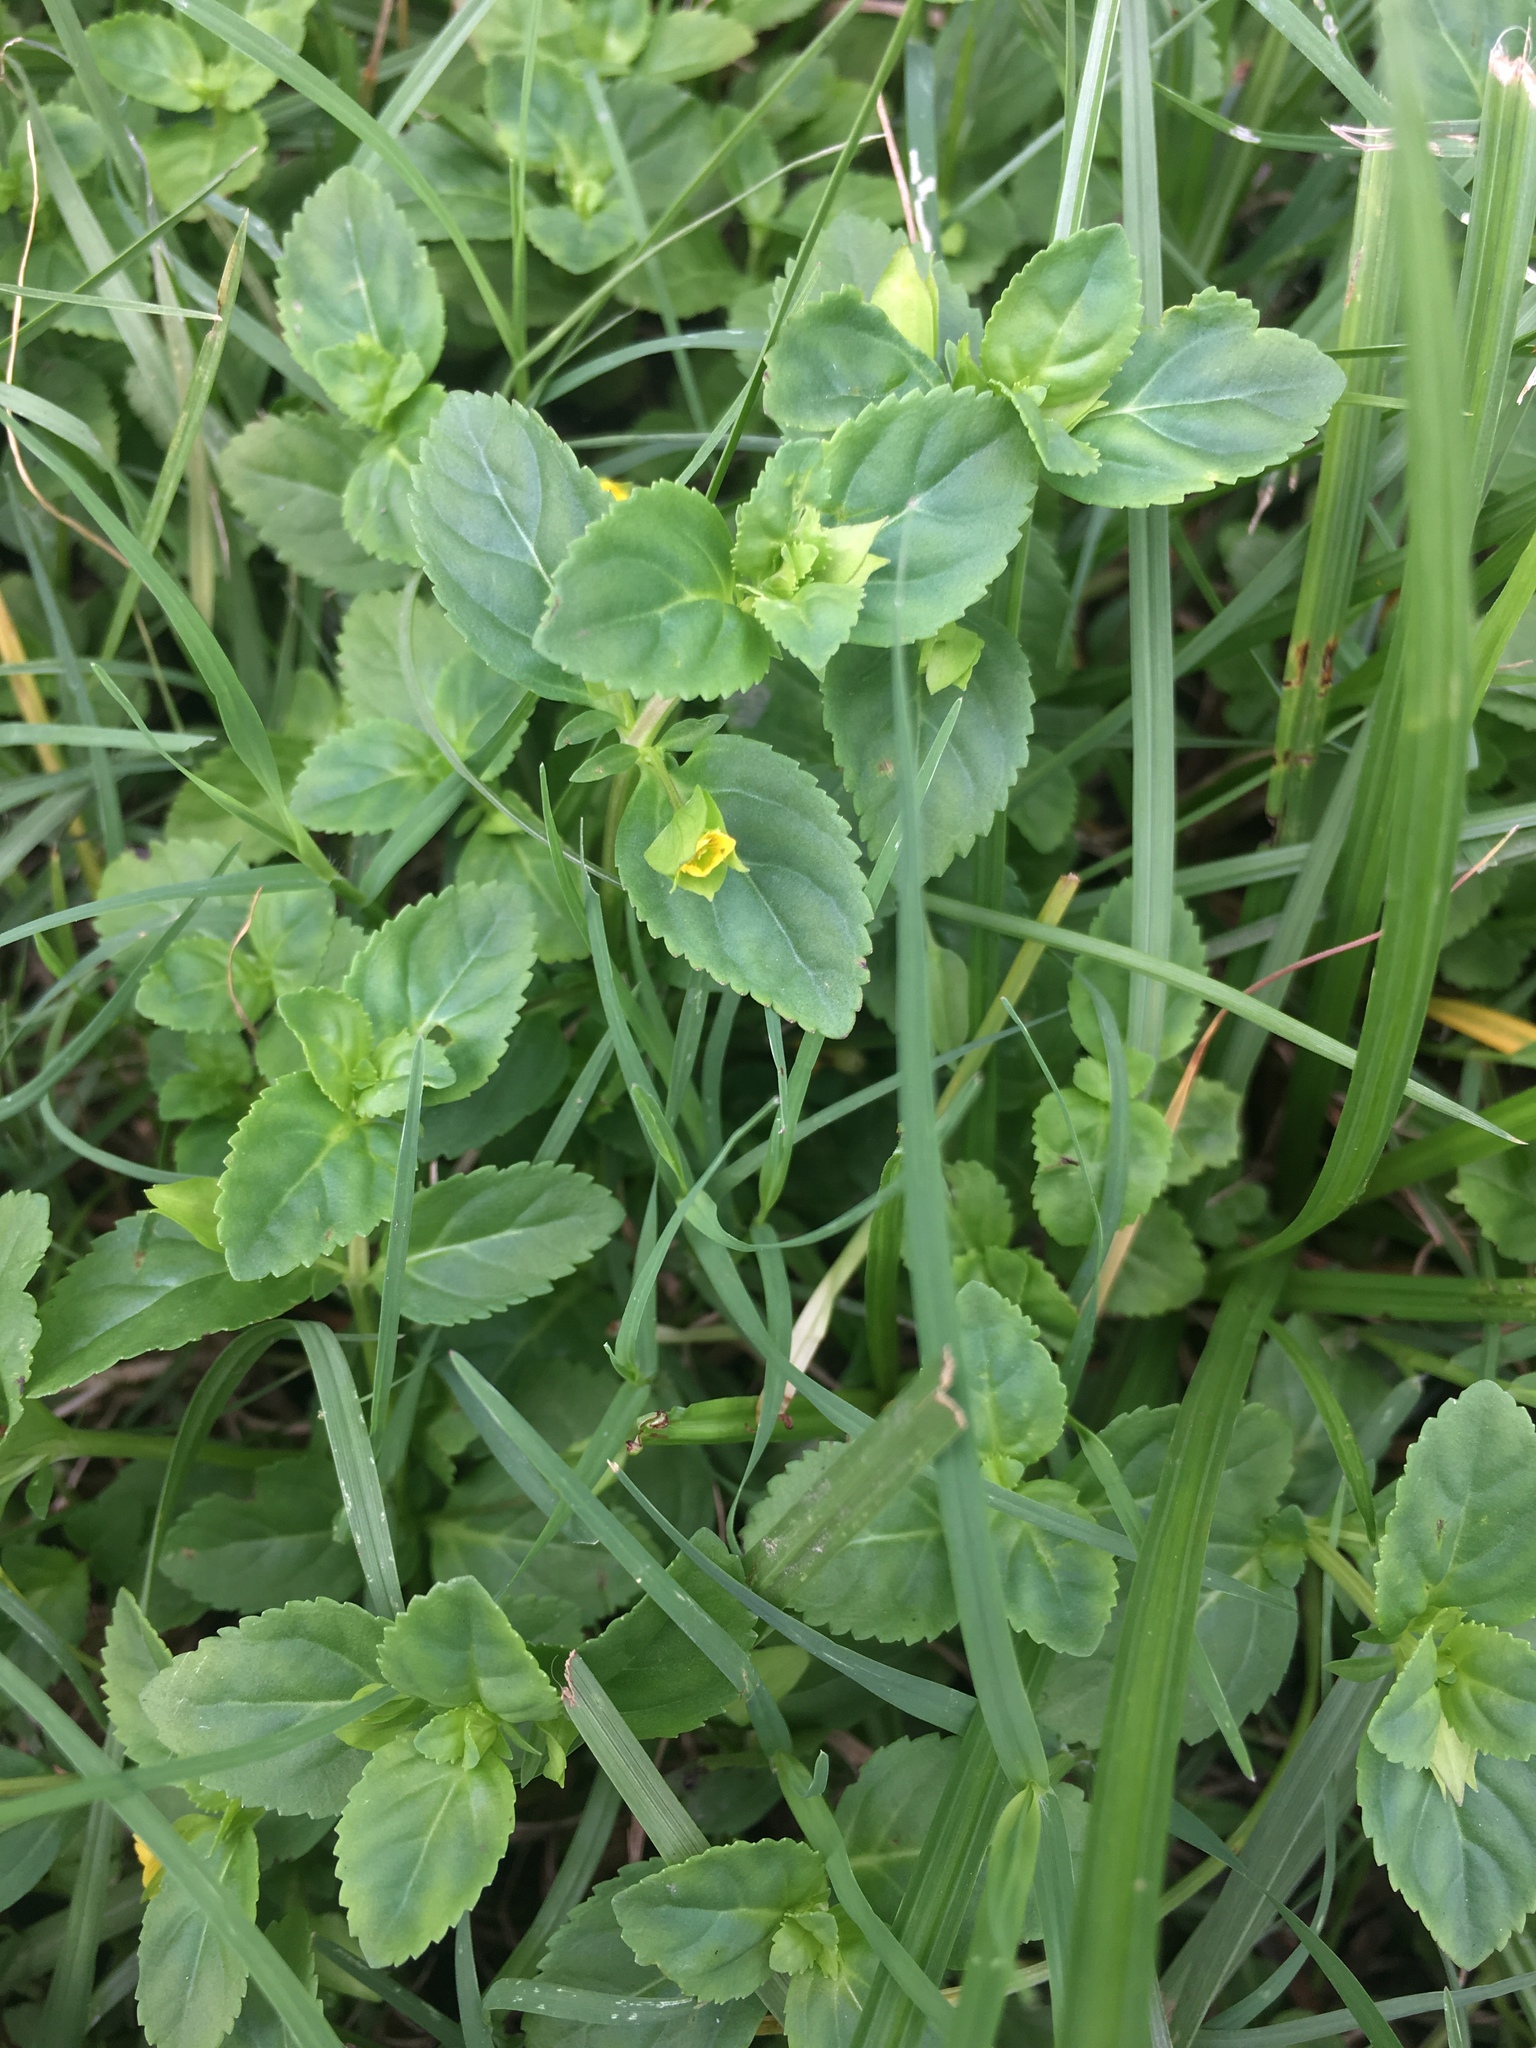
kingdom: Plantae
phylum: Tracheophyta
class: Magnoliopsida
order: Lamiales
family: Plantaginaceae
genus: Mecardonia
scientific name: Mecardonia procumbens
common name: Baby jump-up
